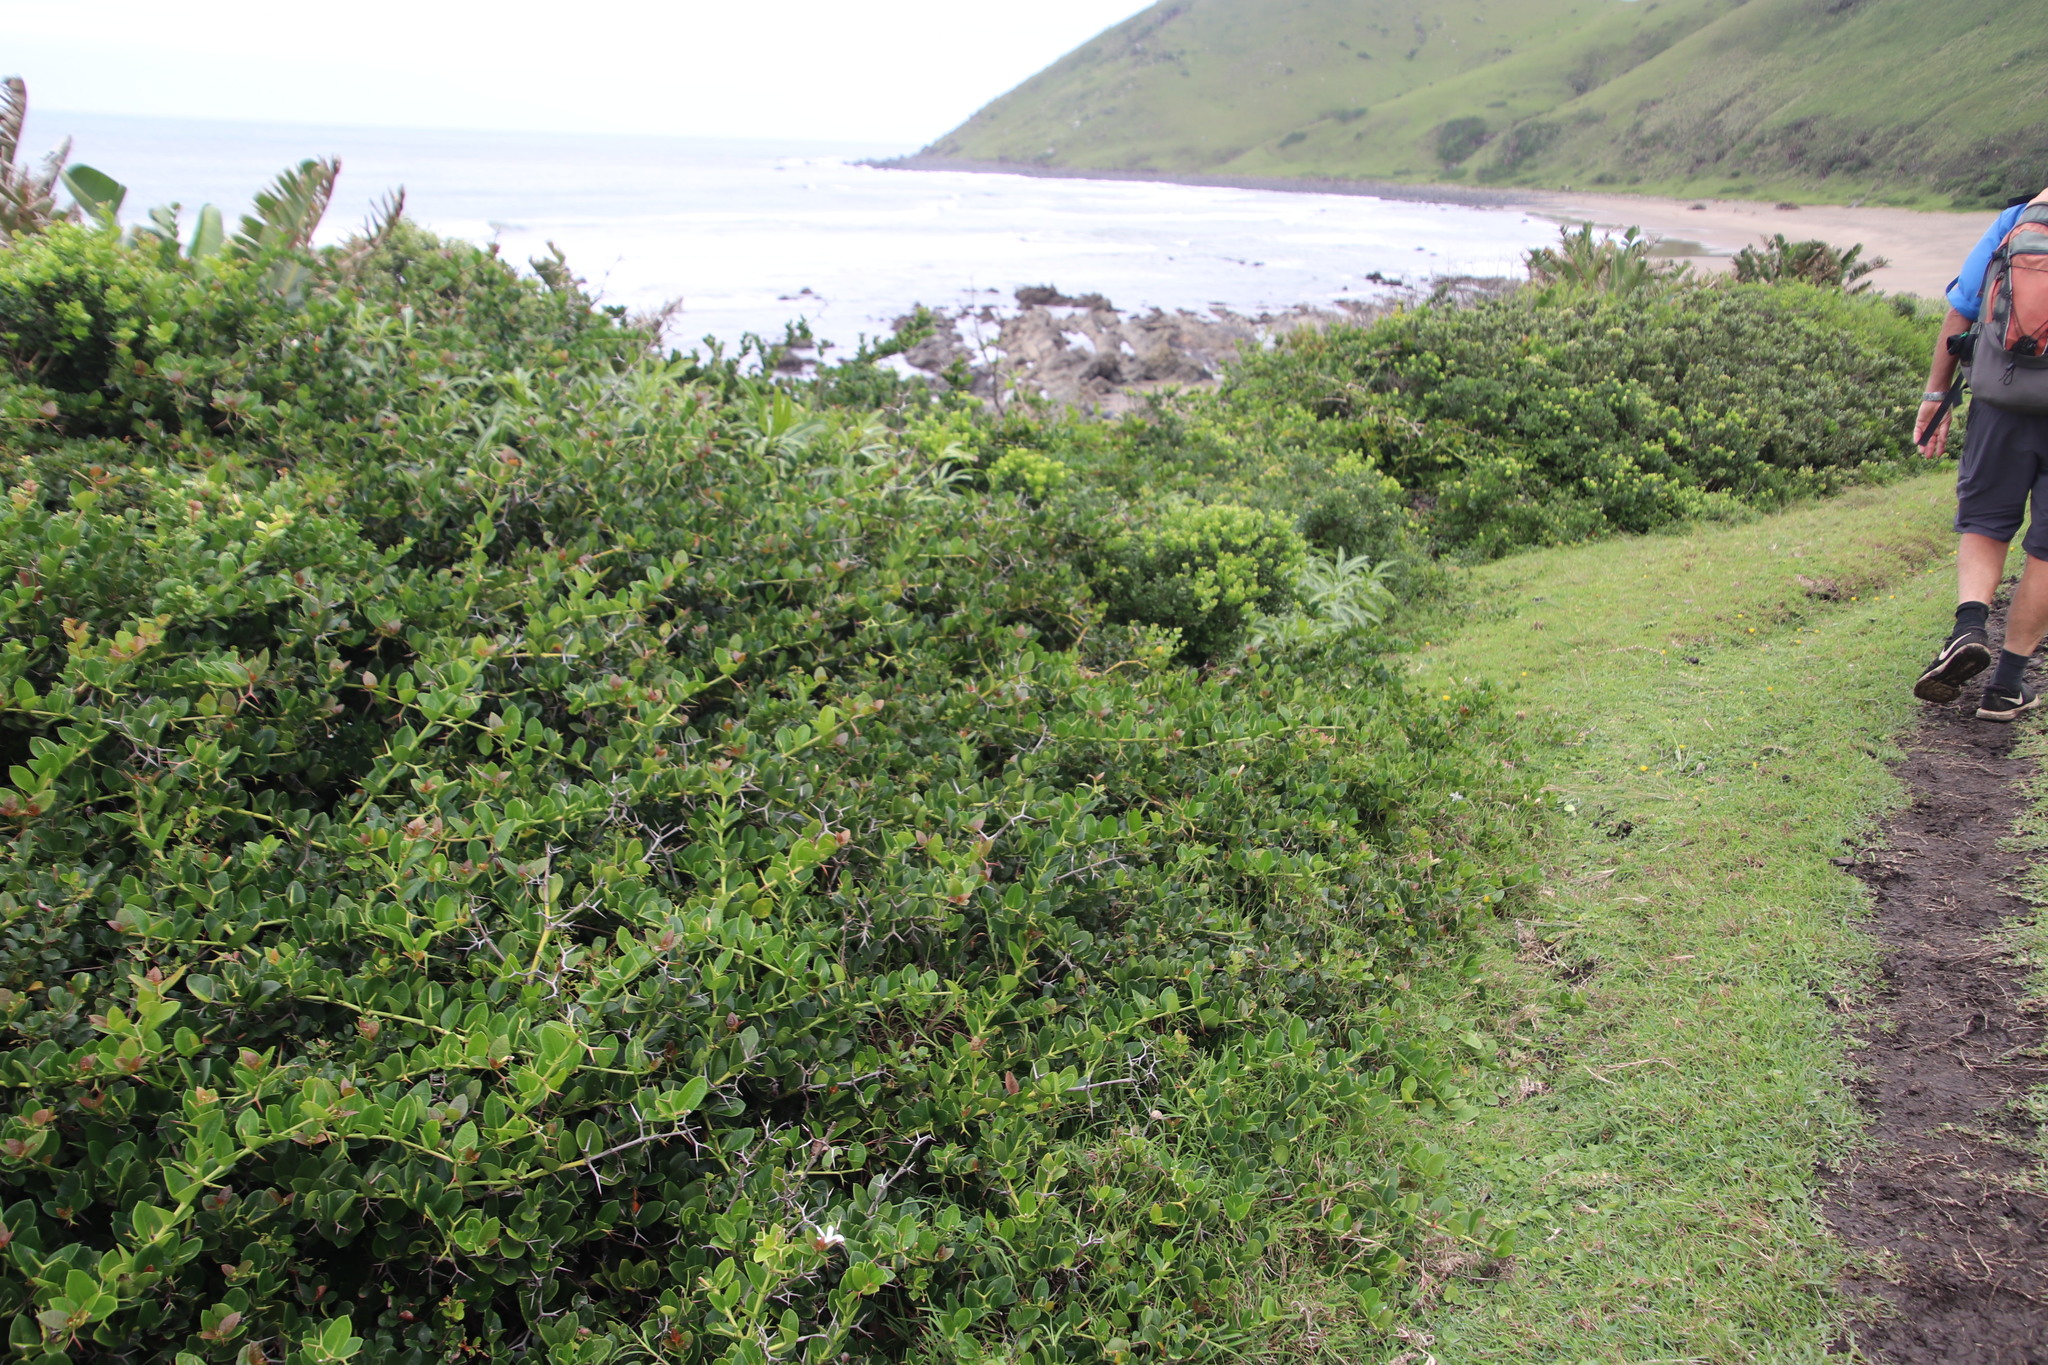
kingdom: Plantae
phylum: Tracheophyta
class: Magnoliopsida
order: Gentianales
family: Apocynaceae
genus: Carissa
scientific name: Carissa macrocarpa
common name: Natal plum
